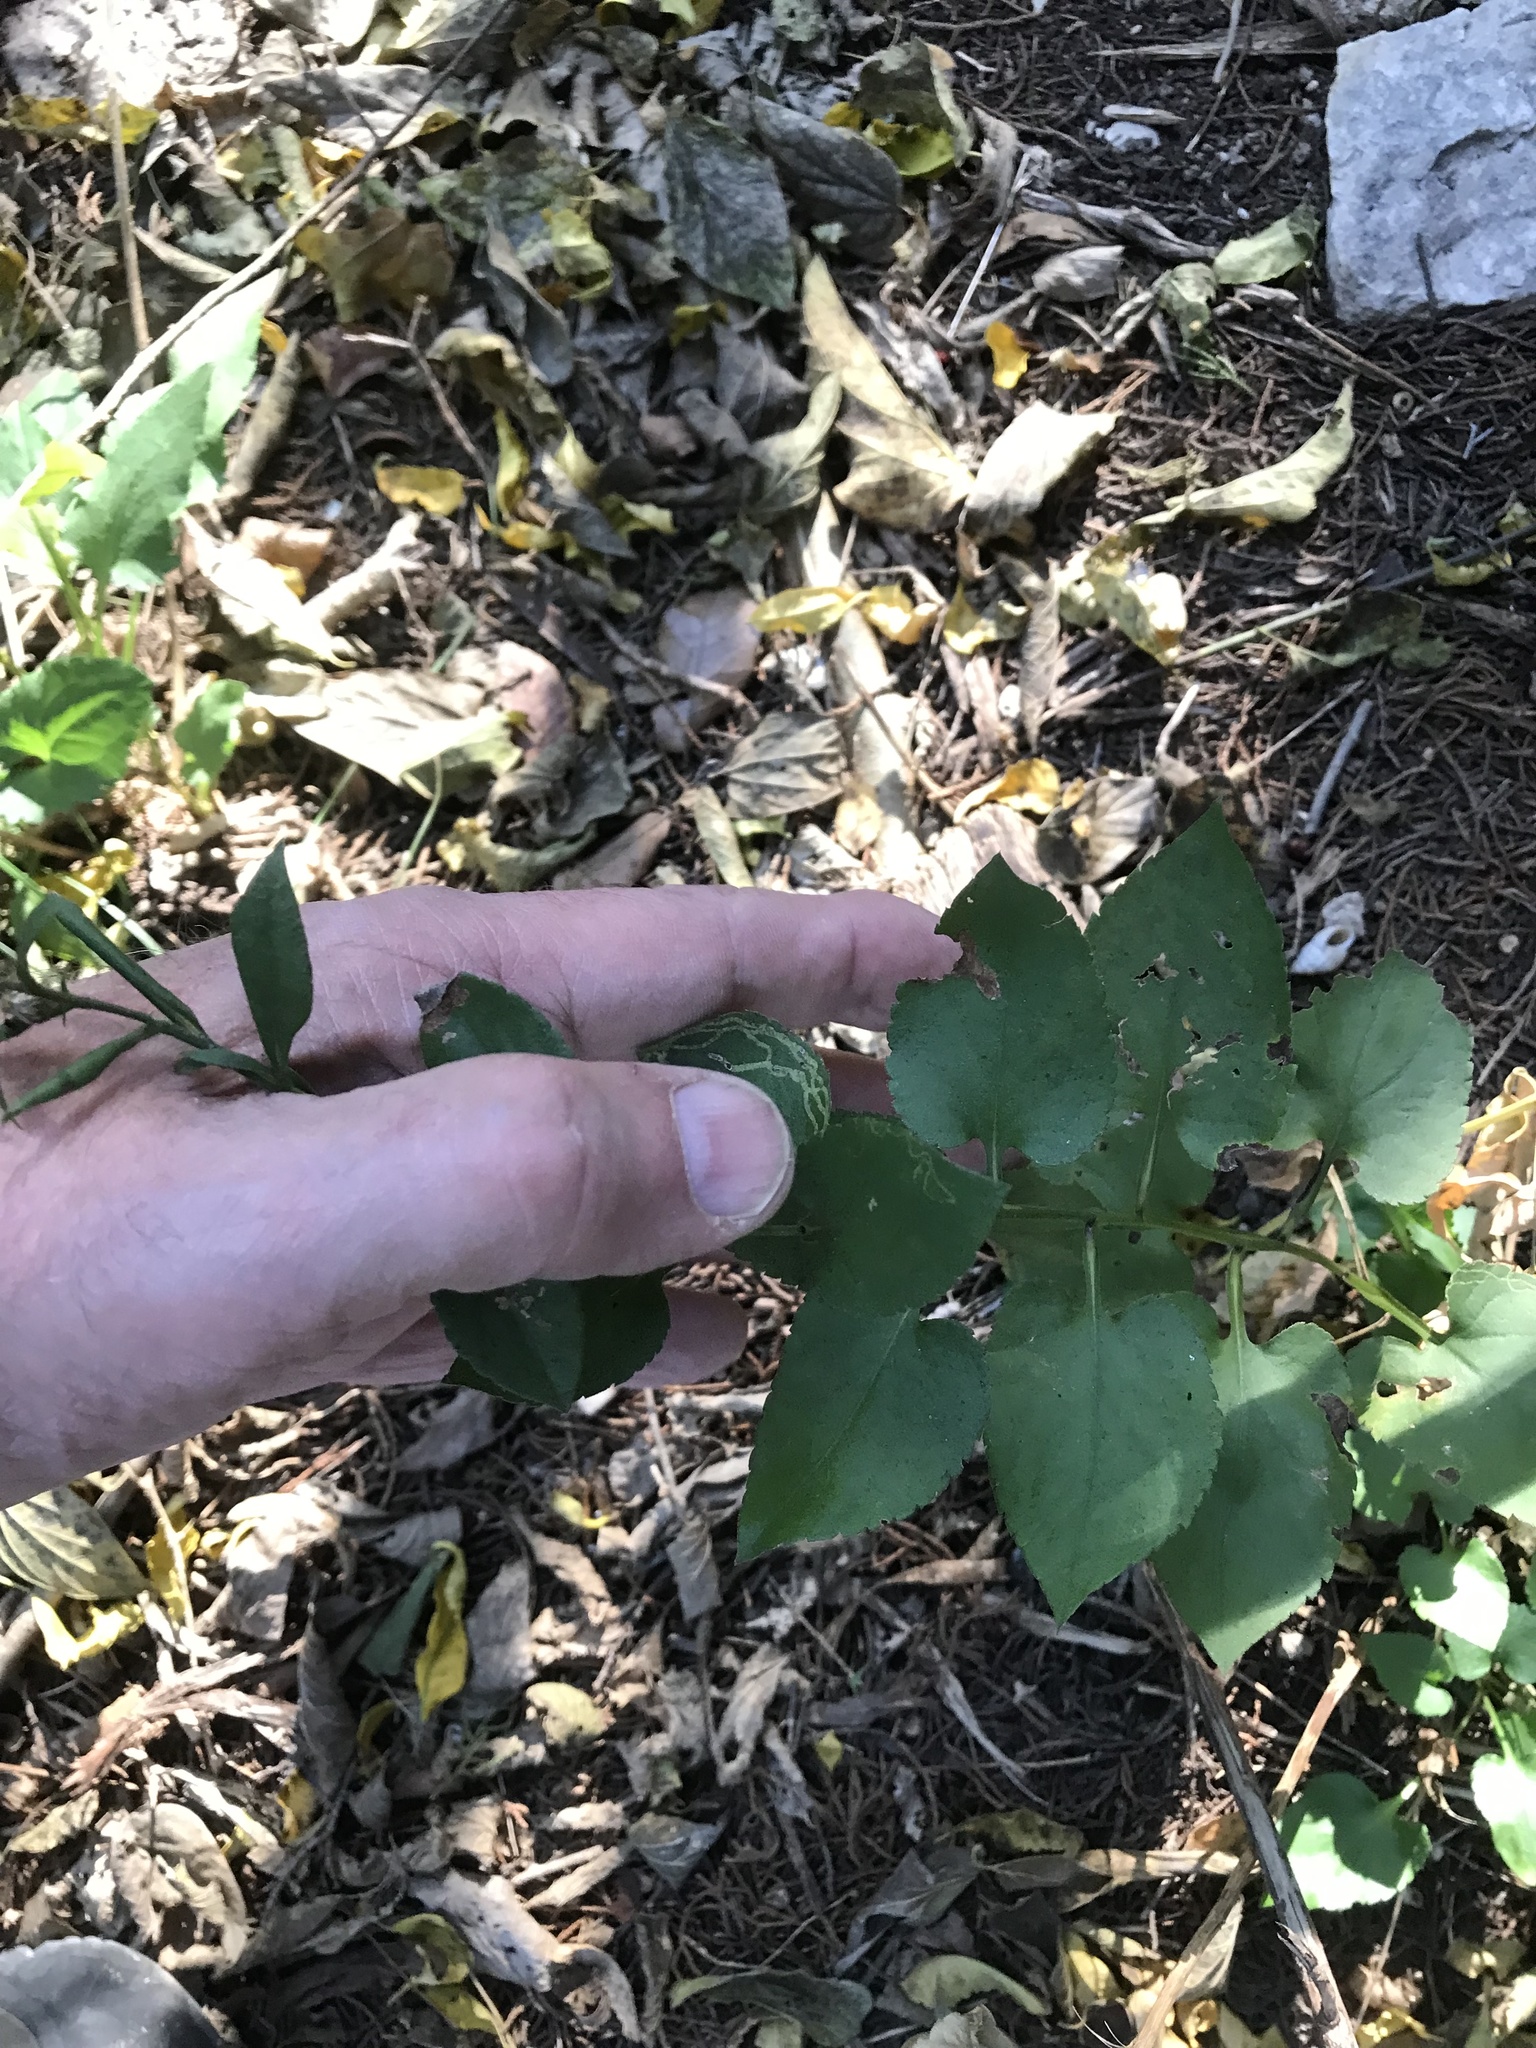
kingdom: Plantae
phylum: Tracheophyta
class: Magnoliopsida
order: Asterales
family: Asteraceae
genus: Symphyotrichum
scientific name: Symphyotrichum drummondii
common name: Drummond's aster
